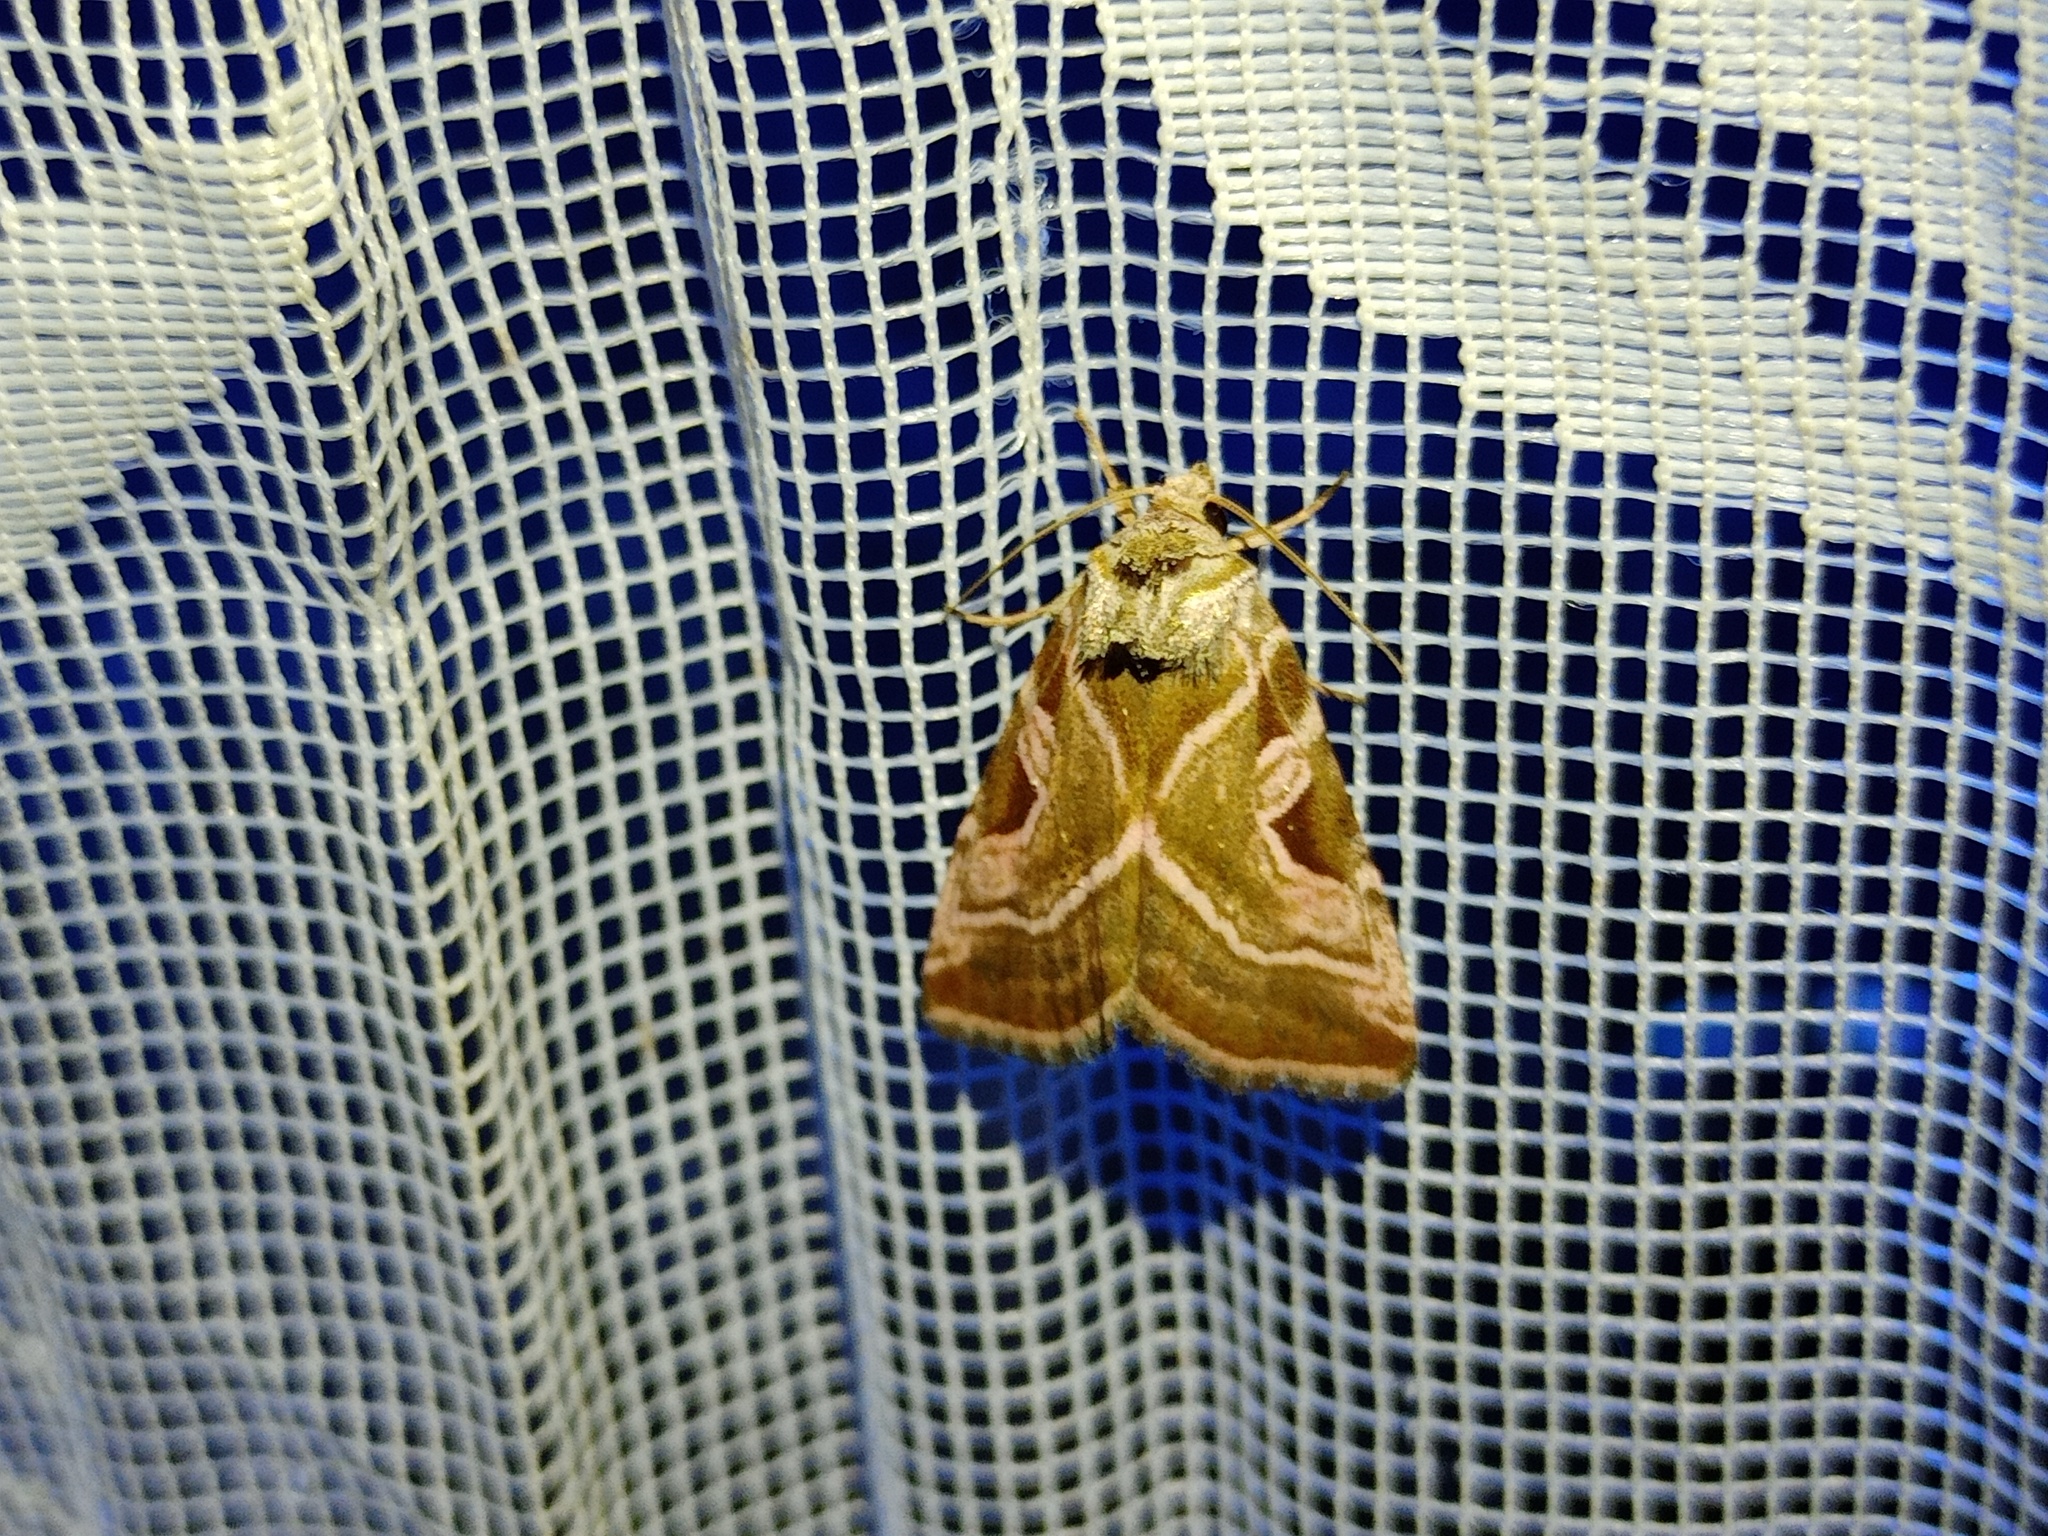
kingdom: Animalia
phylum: Arthropoda
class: Insecta
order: Lepidoptera
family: Noctuidae
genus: Eucarta
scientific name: Eucarta virgo
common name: Silvery gem
